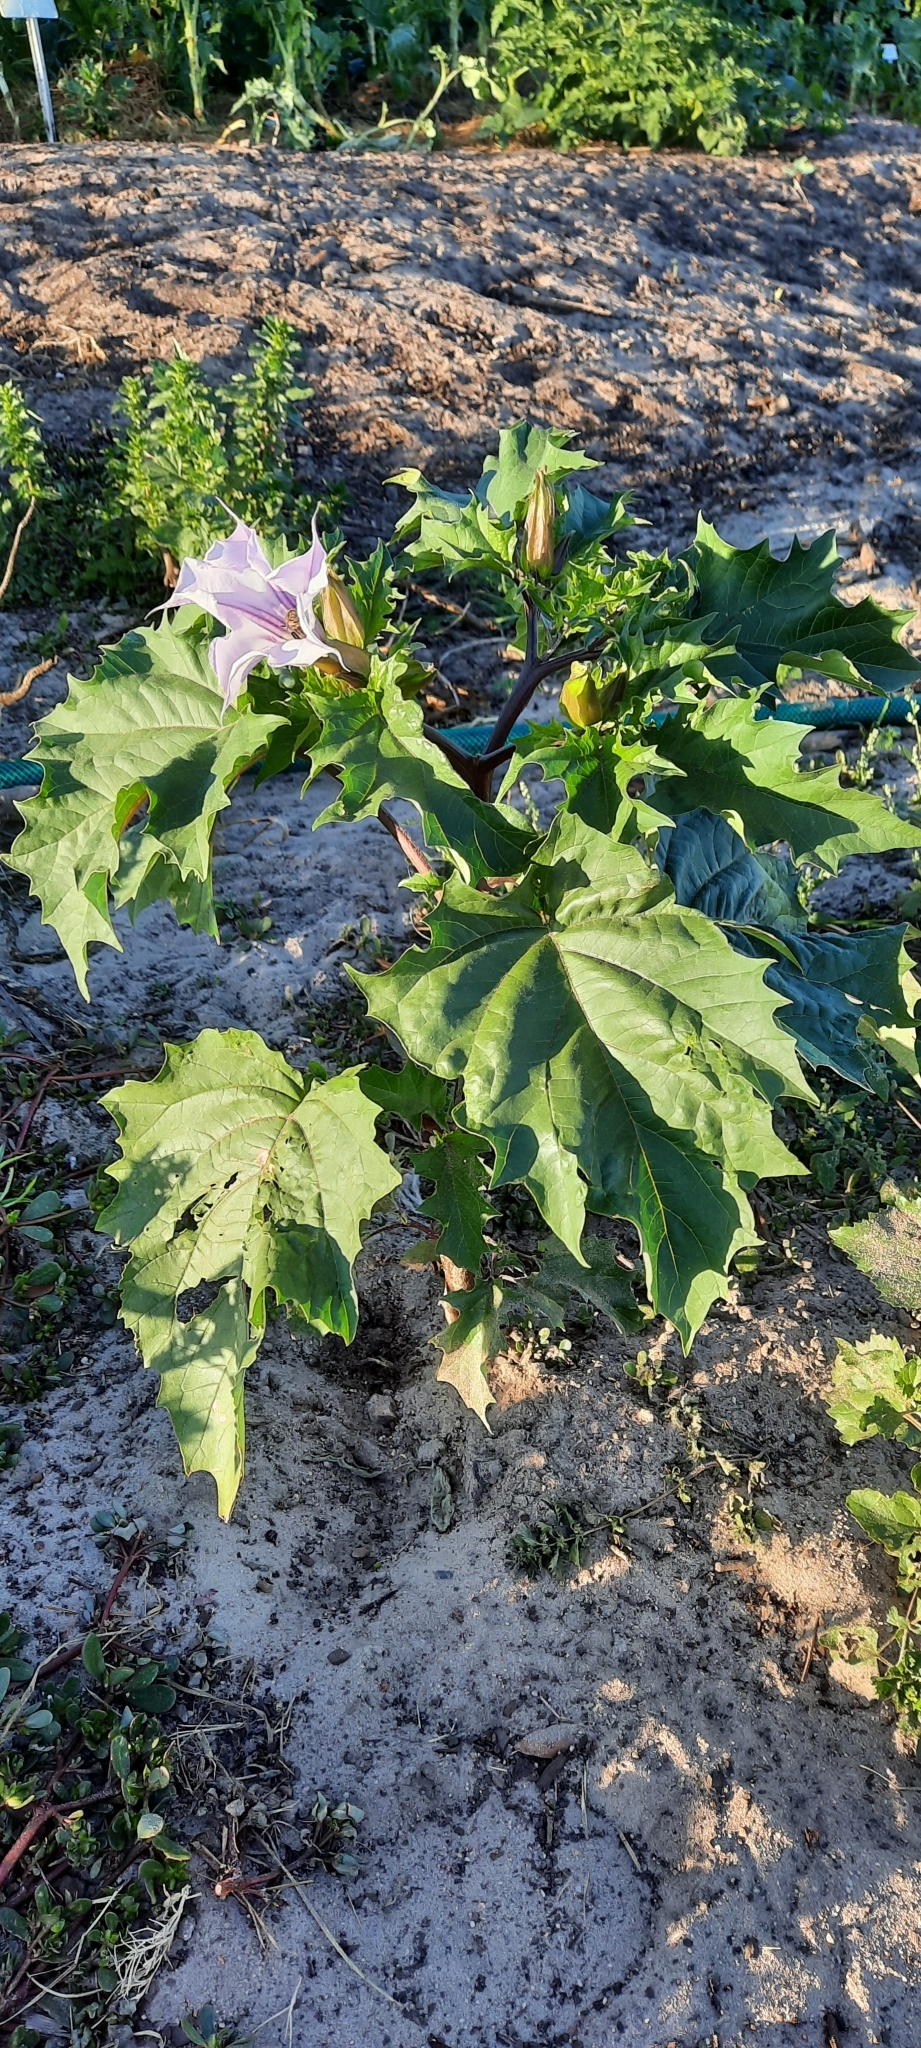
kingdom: Plantae
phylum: Tracheophyta
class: Magnoliopsida
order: Solanales
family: Solanaceae
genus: Datura
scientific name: Datura stramonium
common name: Thorn-apple
